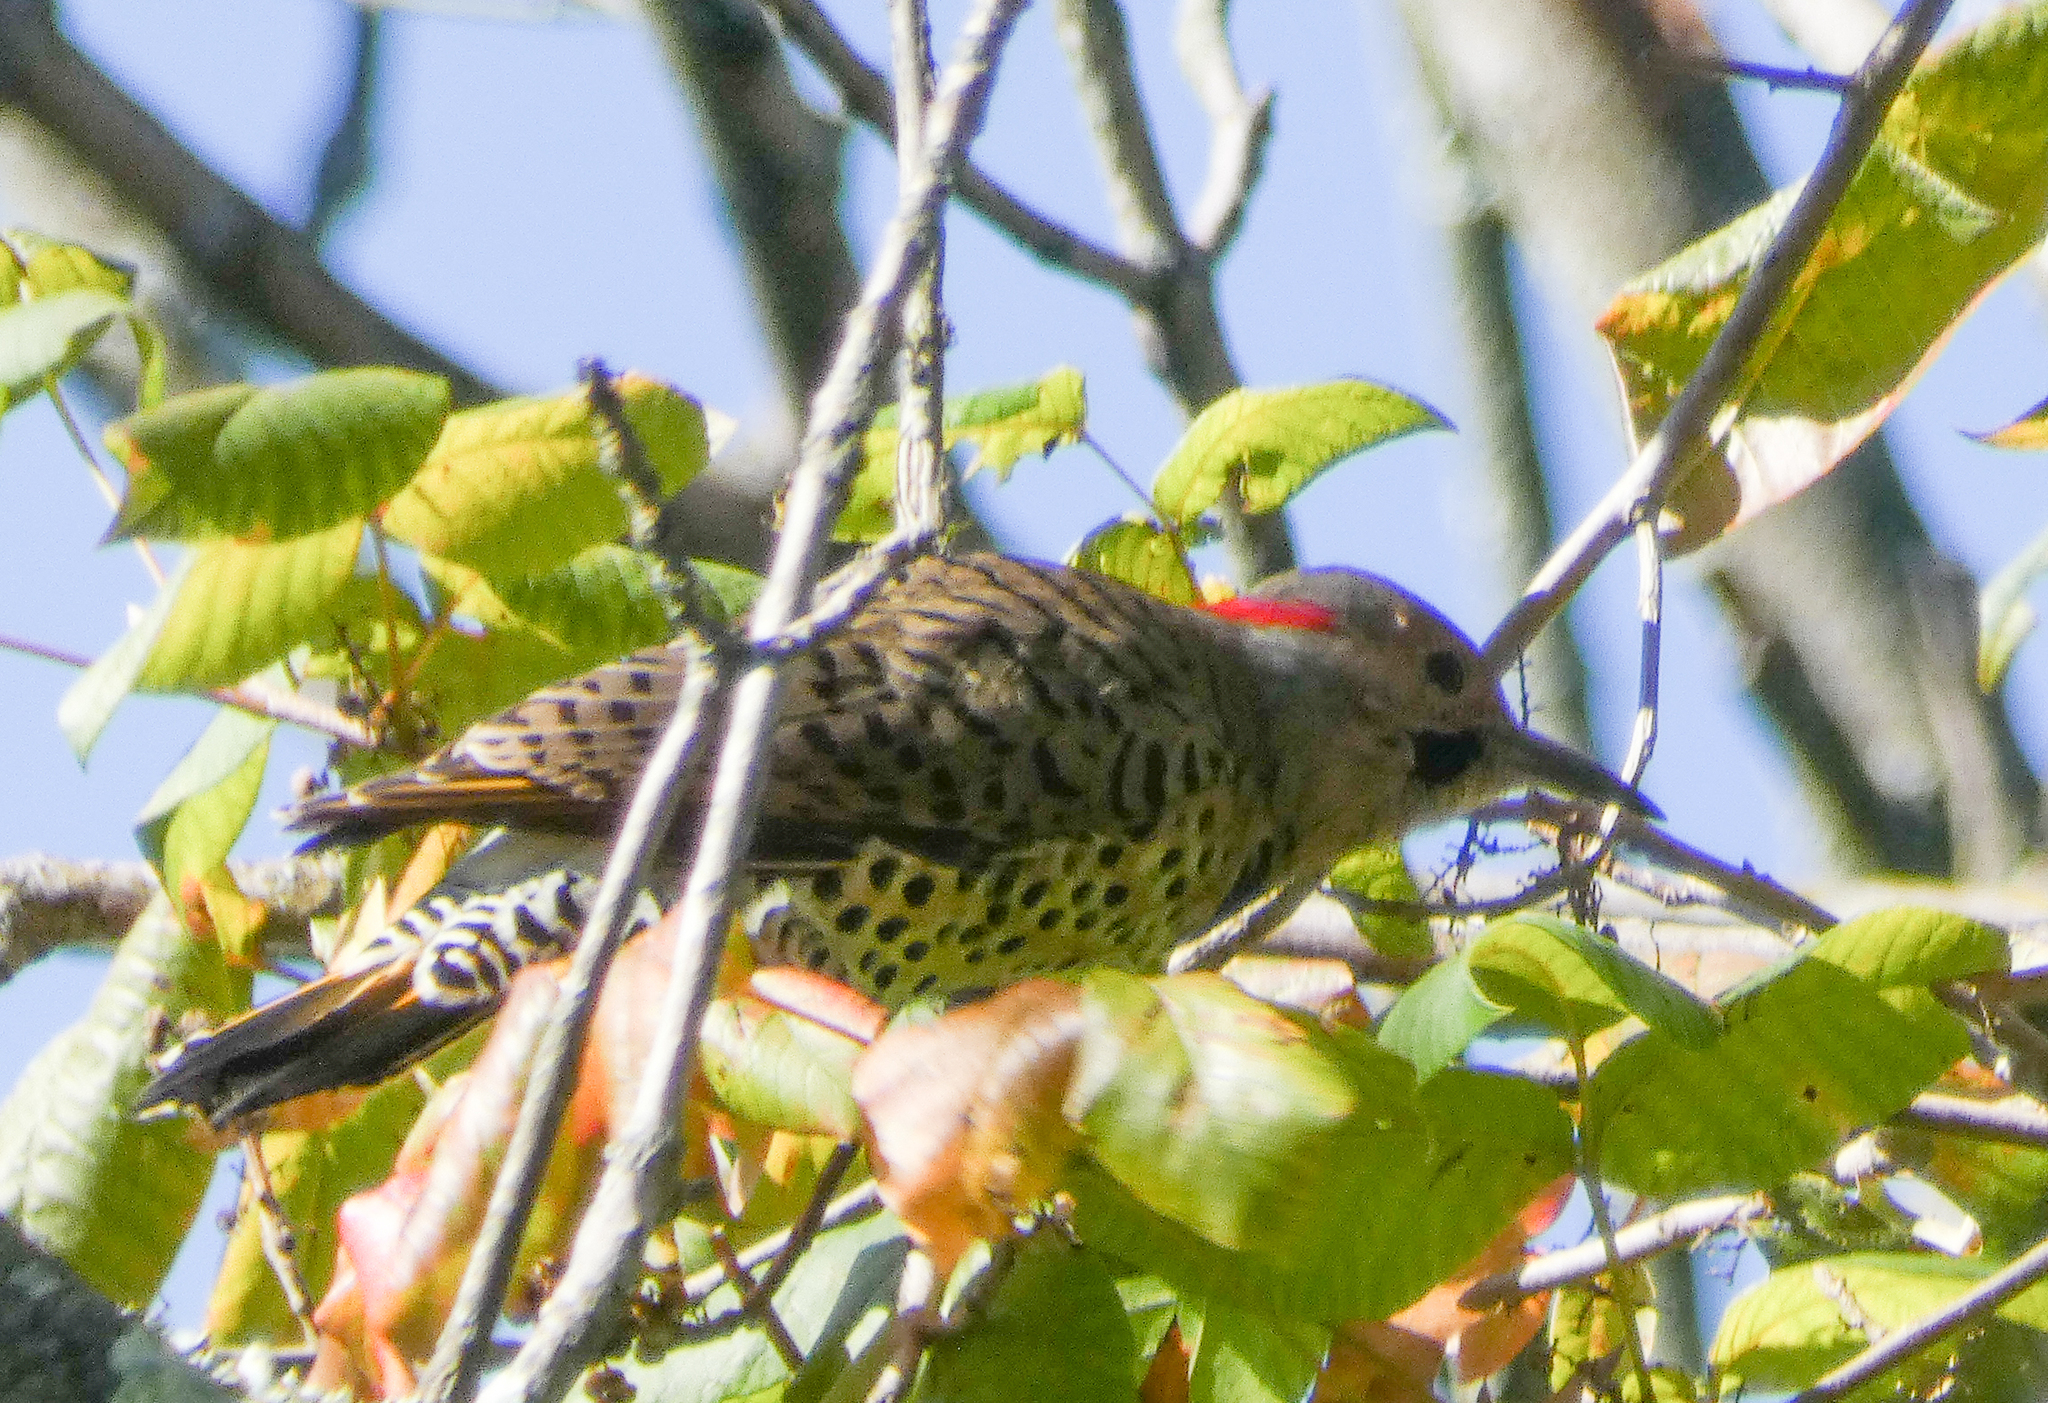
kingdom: Animalia
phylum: Chordata
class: Aves
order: Piciformes
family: Picidae
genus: Colaptes
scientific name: Colaptes auratus
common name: Northern flicker
